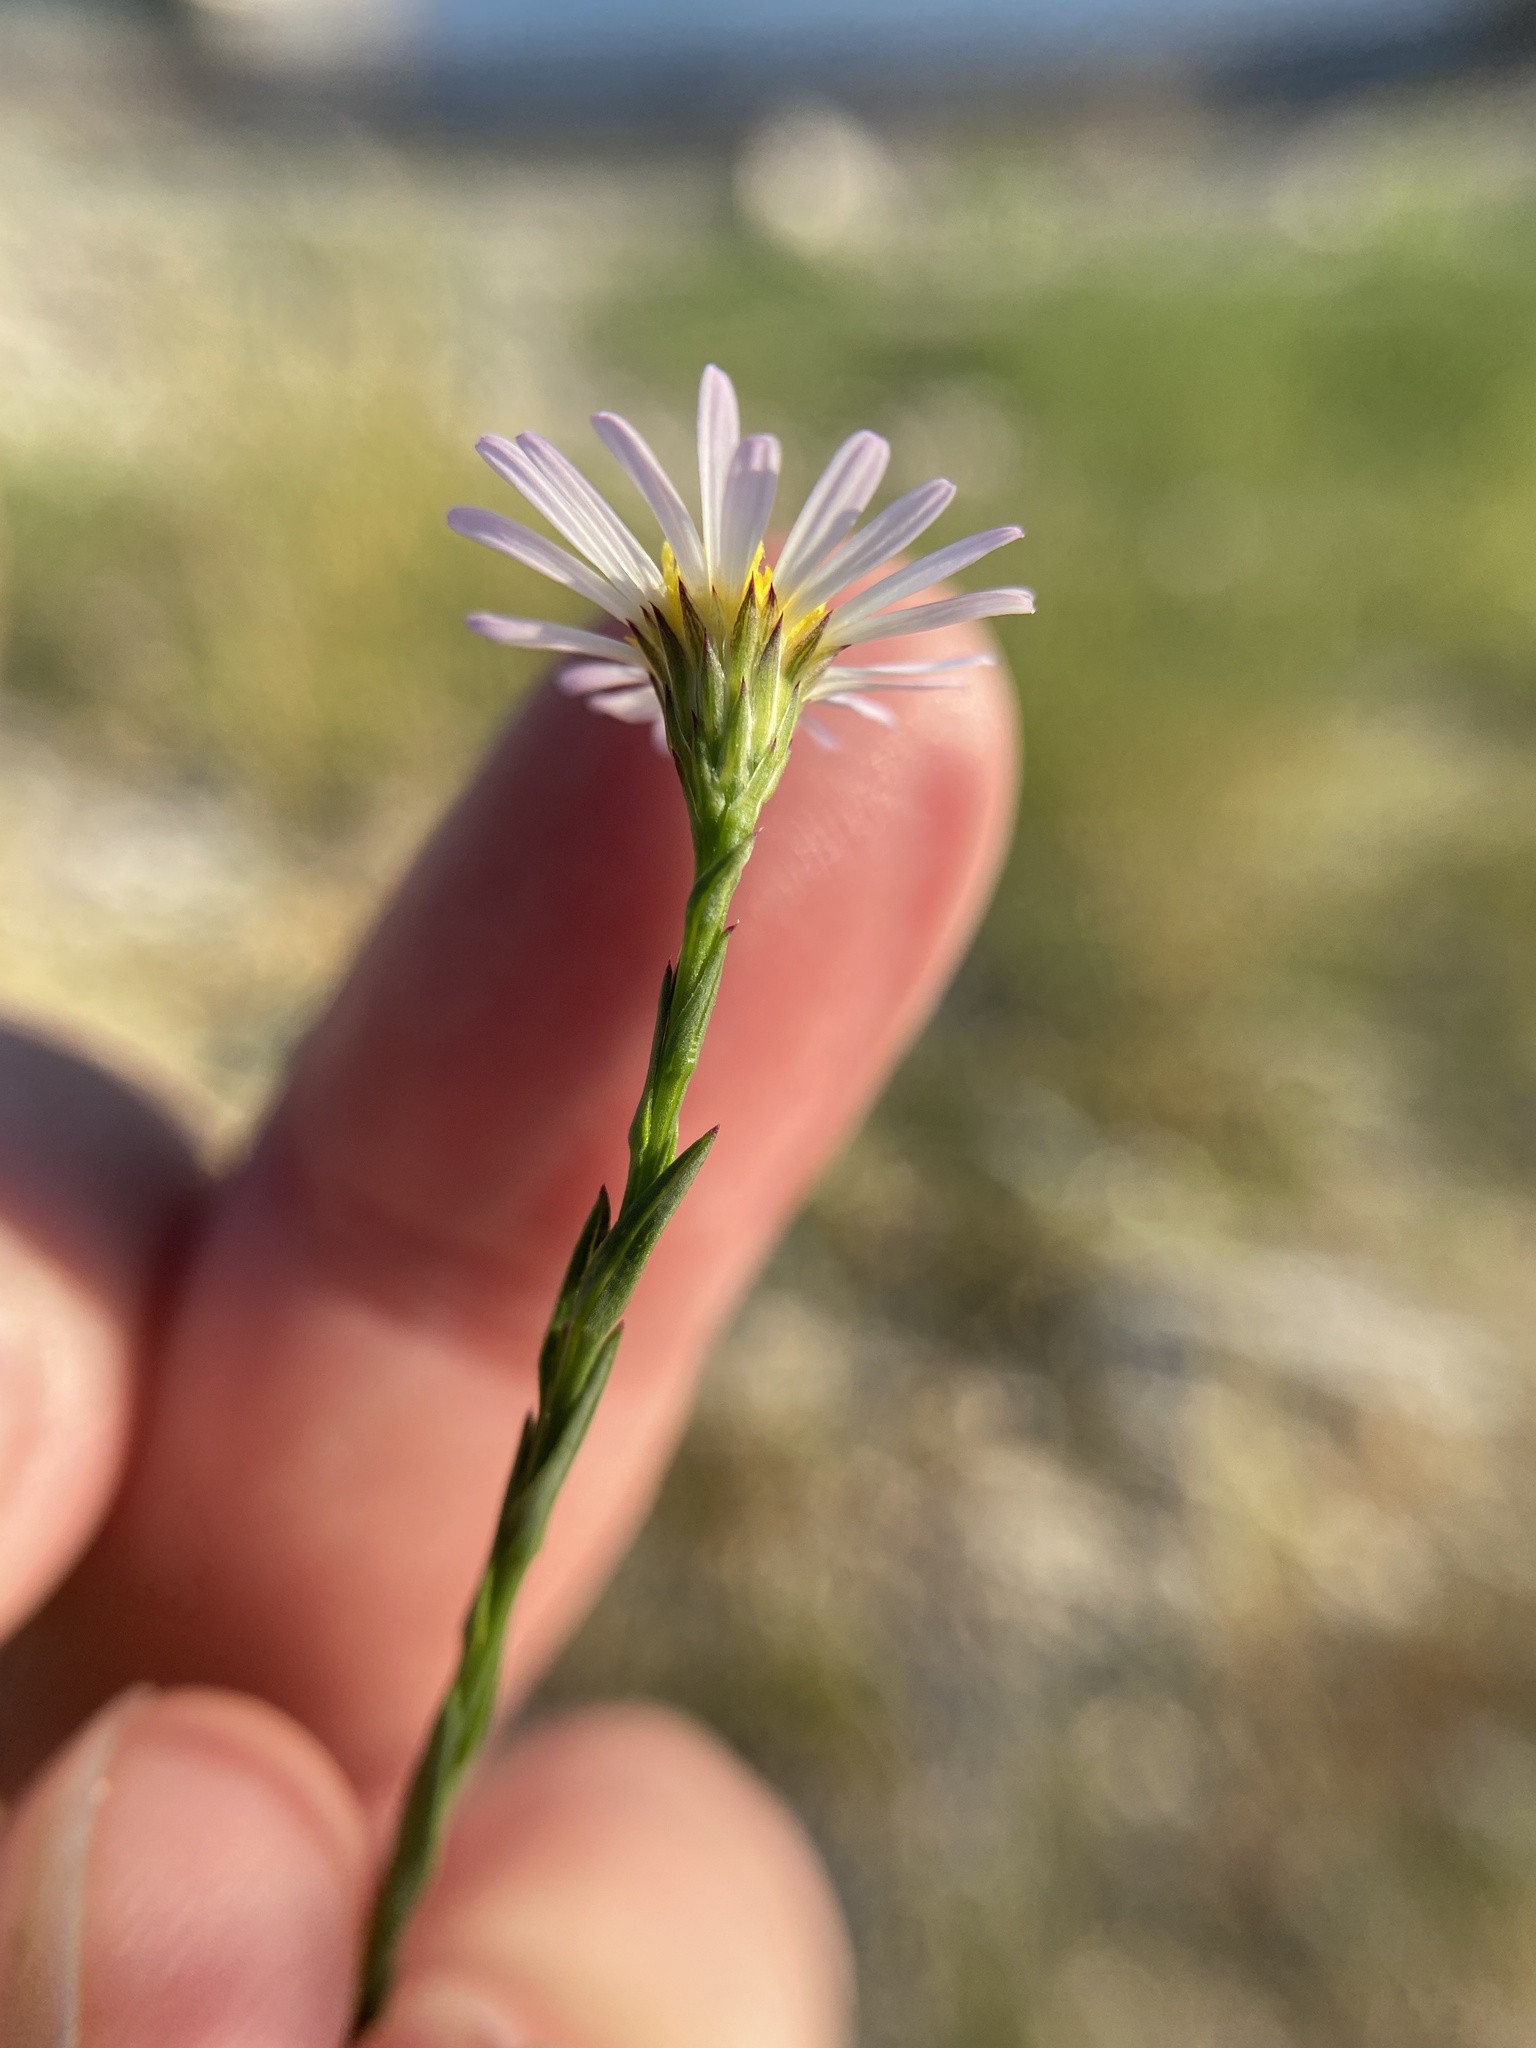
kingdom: Plantae
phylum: Tracheophyta
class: Magnoliopsida
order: Asterales
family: Asteraceae
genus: Symphyotrichum
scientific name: Symphyotrichum divaricatum
